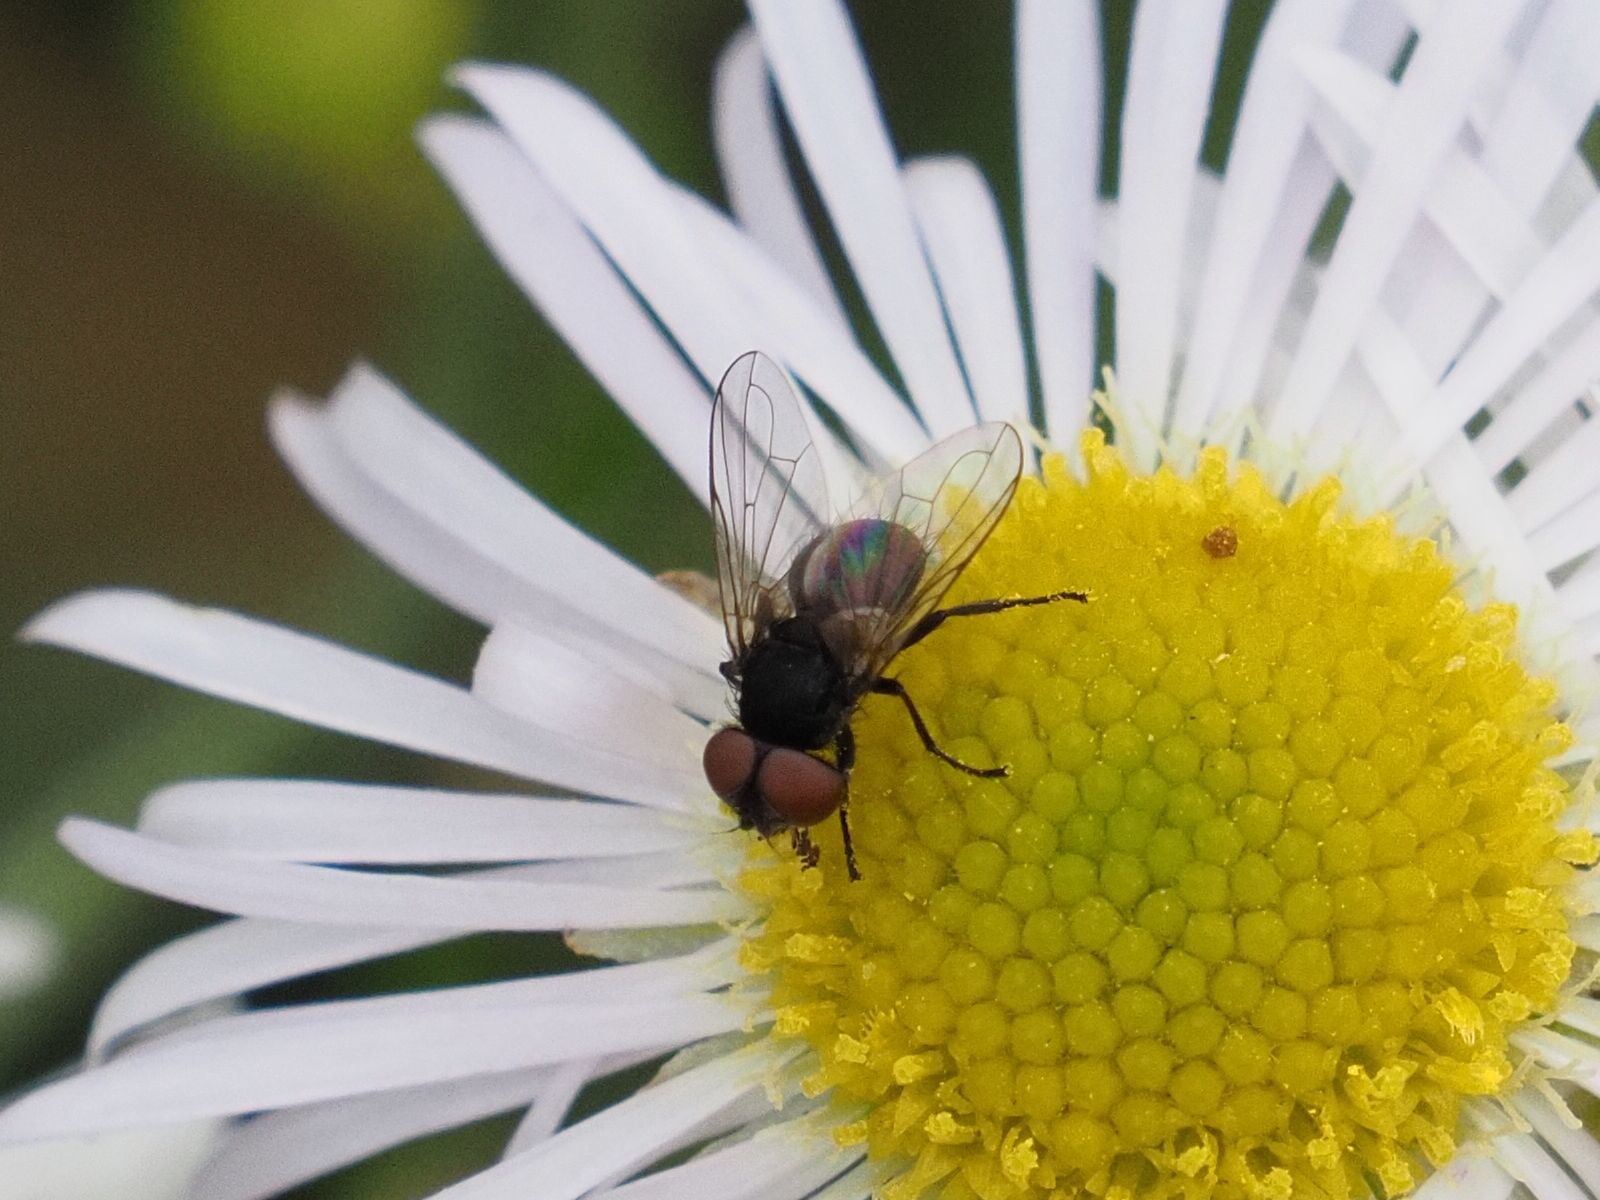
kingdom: Animalia
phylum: Arthropoda
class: Insecta
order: Diptera
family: Tachinidae
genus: Phasia
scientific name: Phasia barbifrons
